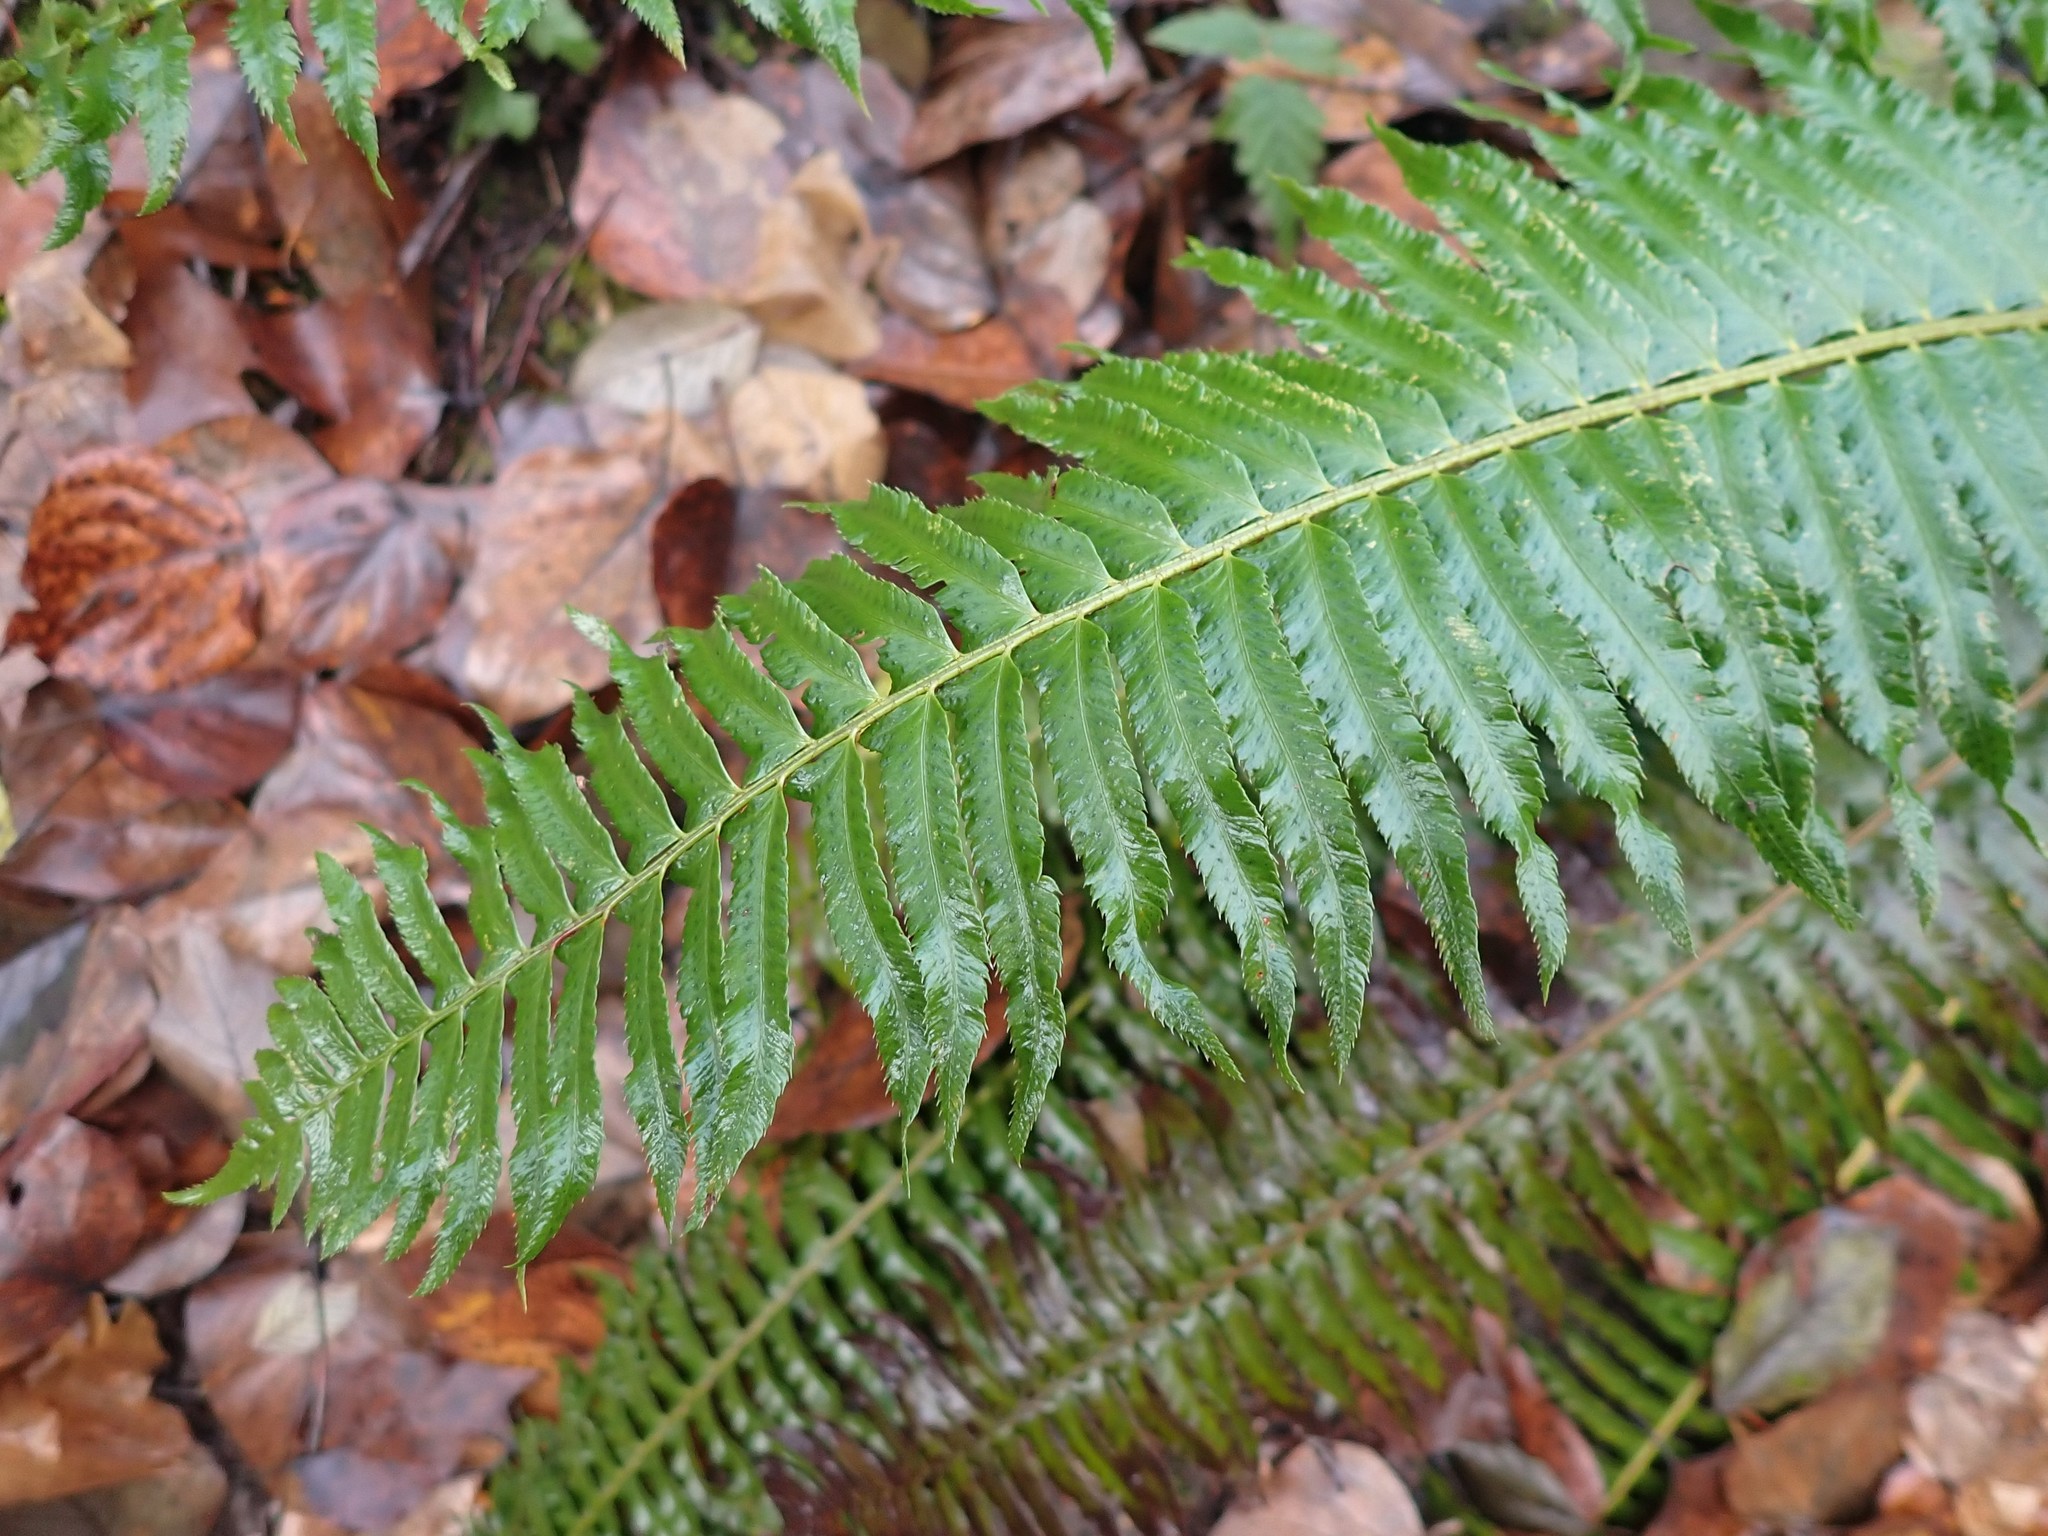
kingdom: Plantae
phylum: Tracheophyta
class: Polypodiopsida
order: Polypodiales
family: Dryopteridaceae
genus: Polystichum
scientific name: Polystichum munitum
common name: Western sword-fern
